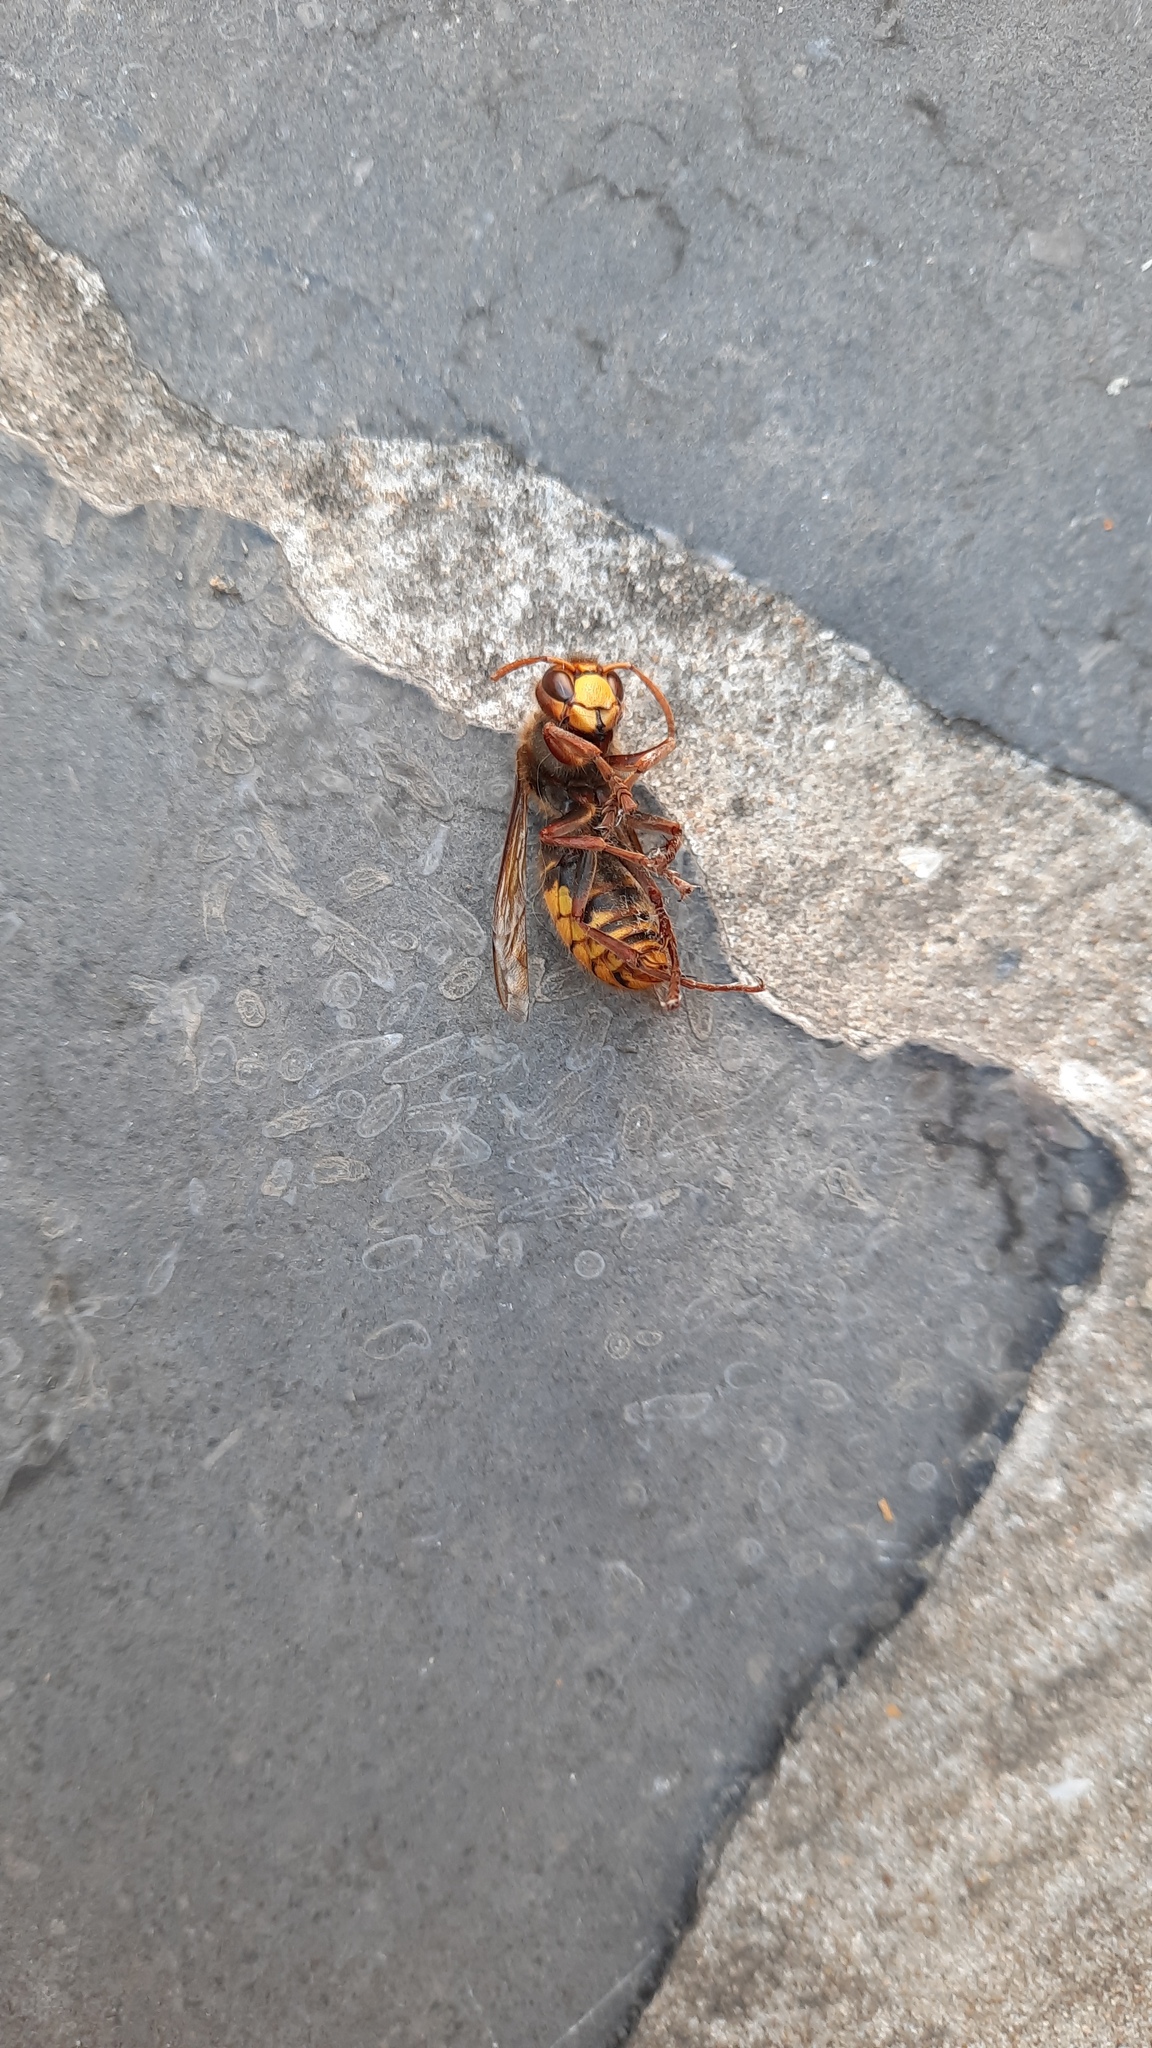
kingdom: Animalia
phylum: Arthropoda
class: Insecta
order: Hymenoptera
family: Vespidae
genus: Vespa
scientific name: Vespa crabro
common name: Hornet
